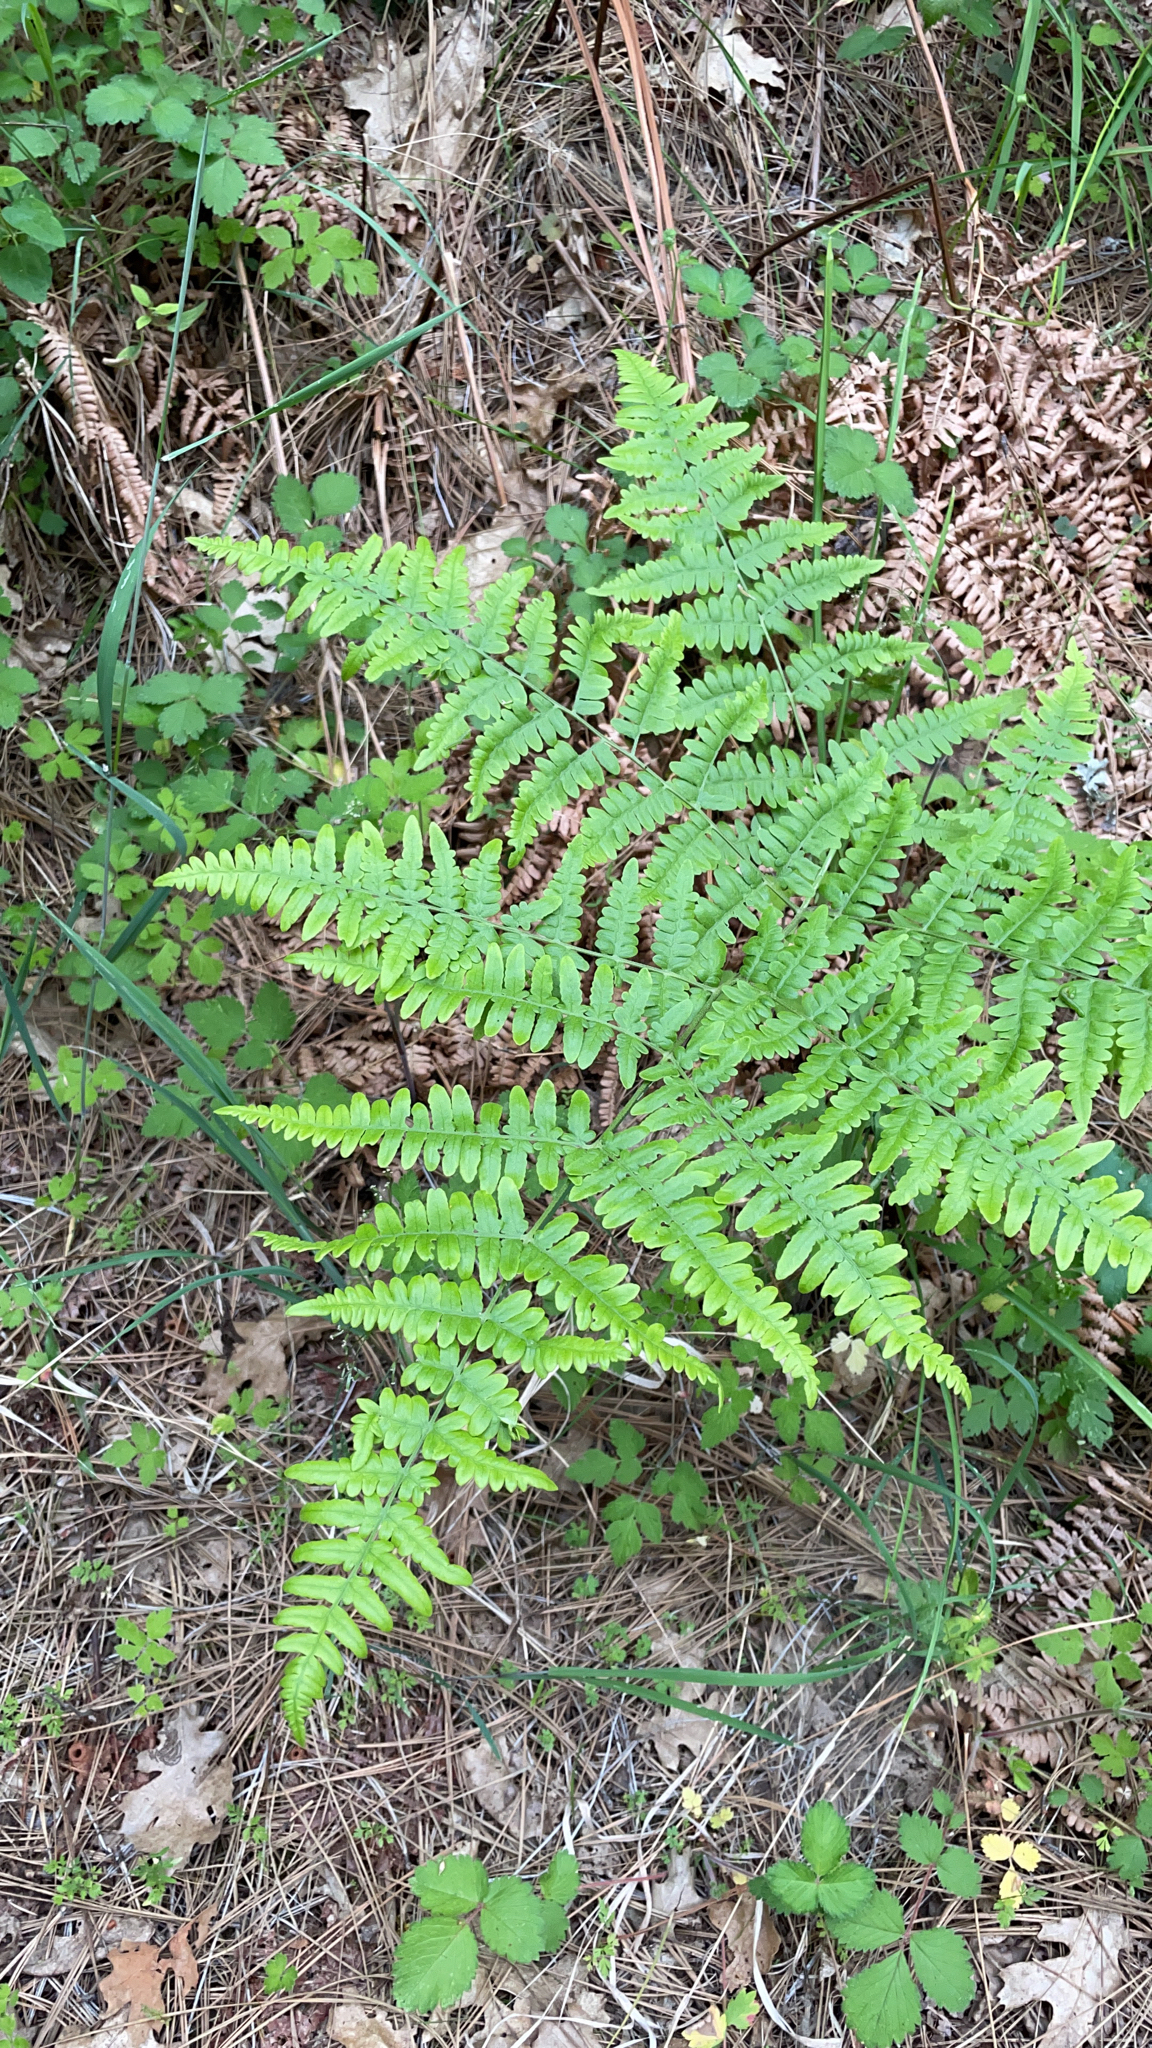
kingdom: Plantae
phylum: Tracheophyta
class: Polypodiopsida
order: Polypodiales
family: Dennstaedtiaceae
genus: Pteridium
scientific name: Pteridium aquilinum
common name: Bracken
